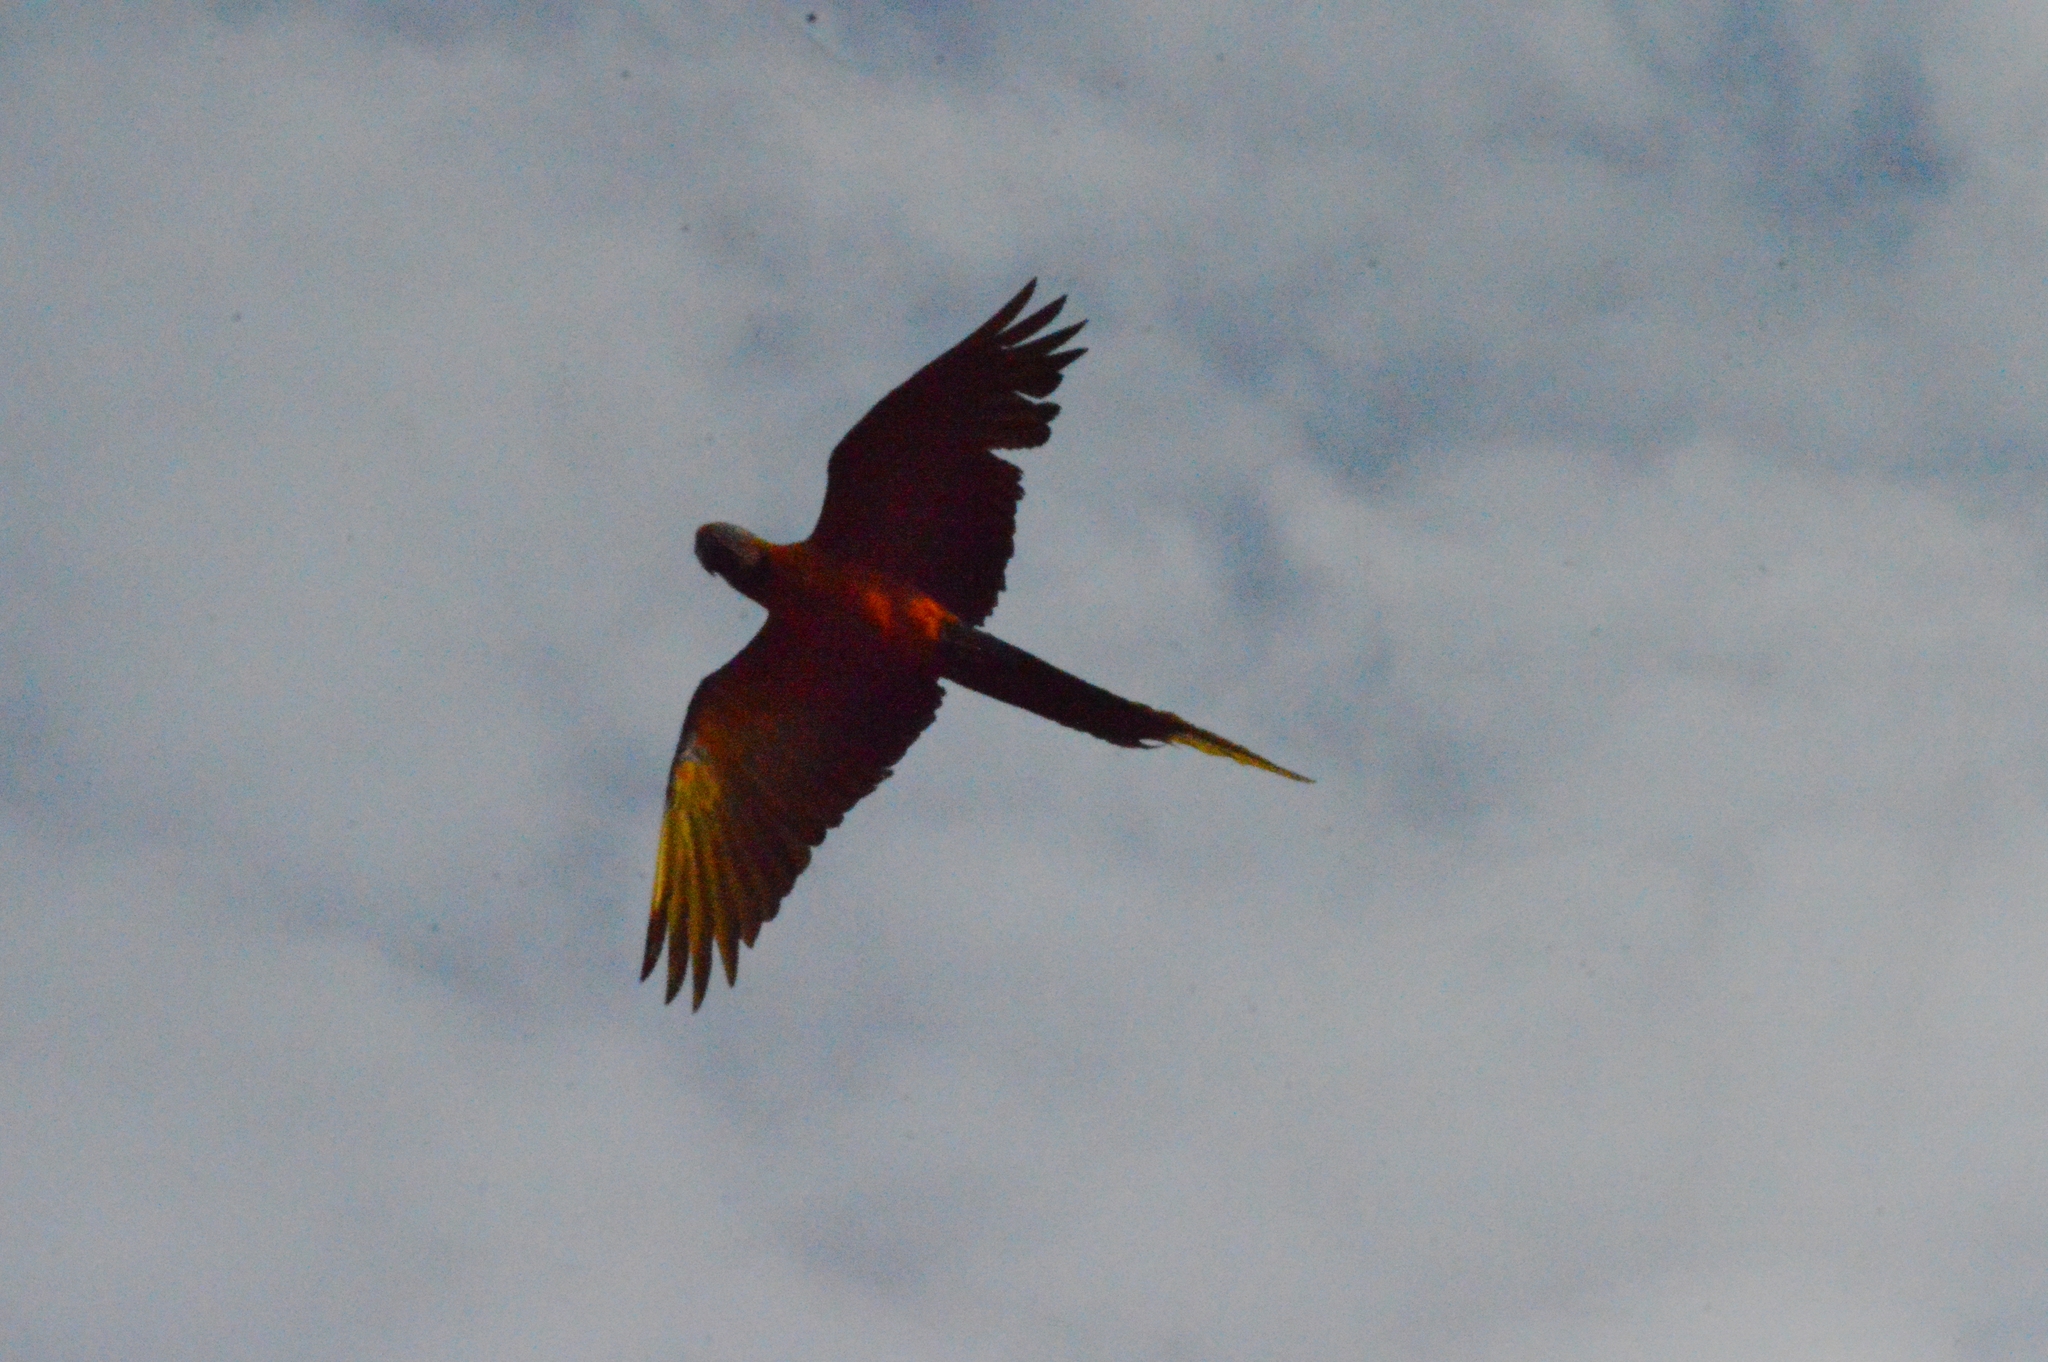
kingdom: Animalia
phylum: Chordata
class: Aves
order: Psittaciformes
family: Psittacidae
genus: Ara
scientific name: Ara ararauna
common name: Blue-and-yellow macaw
